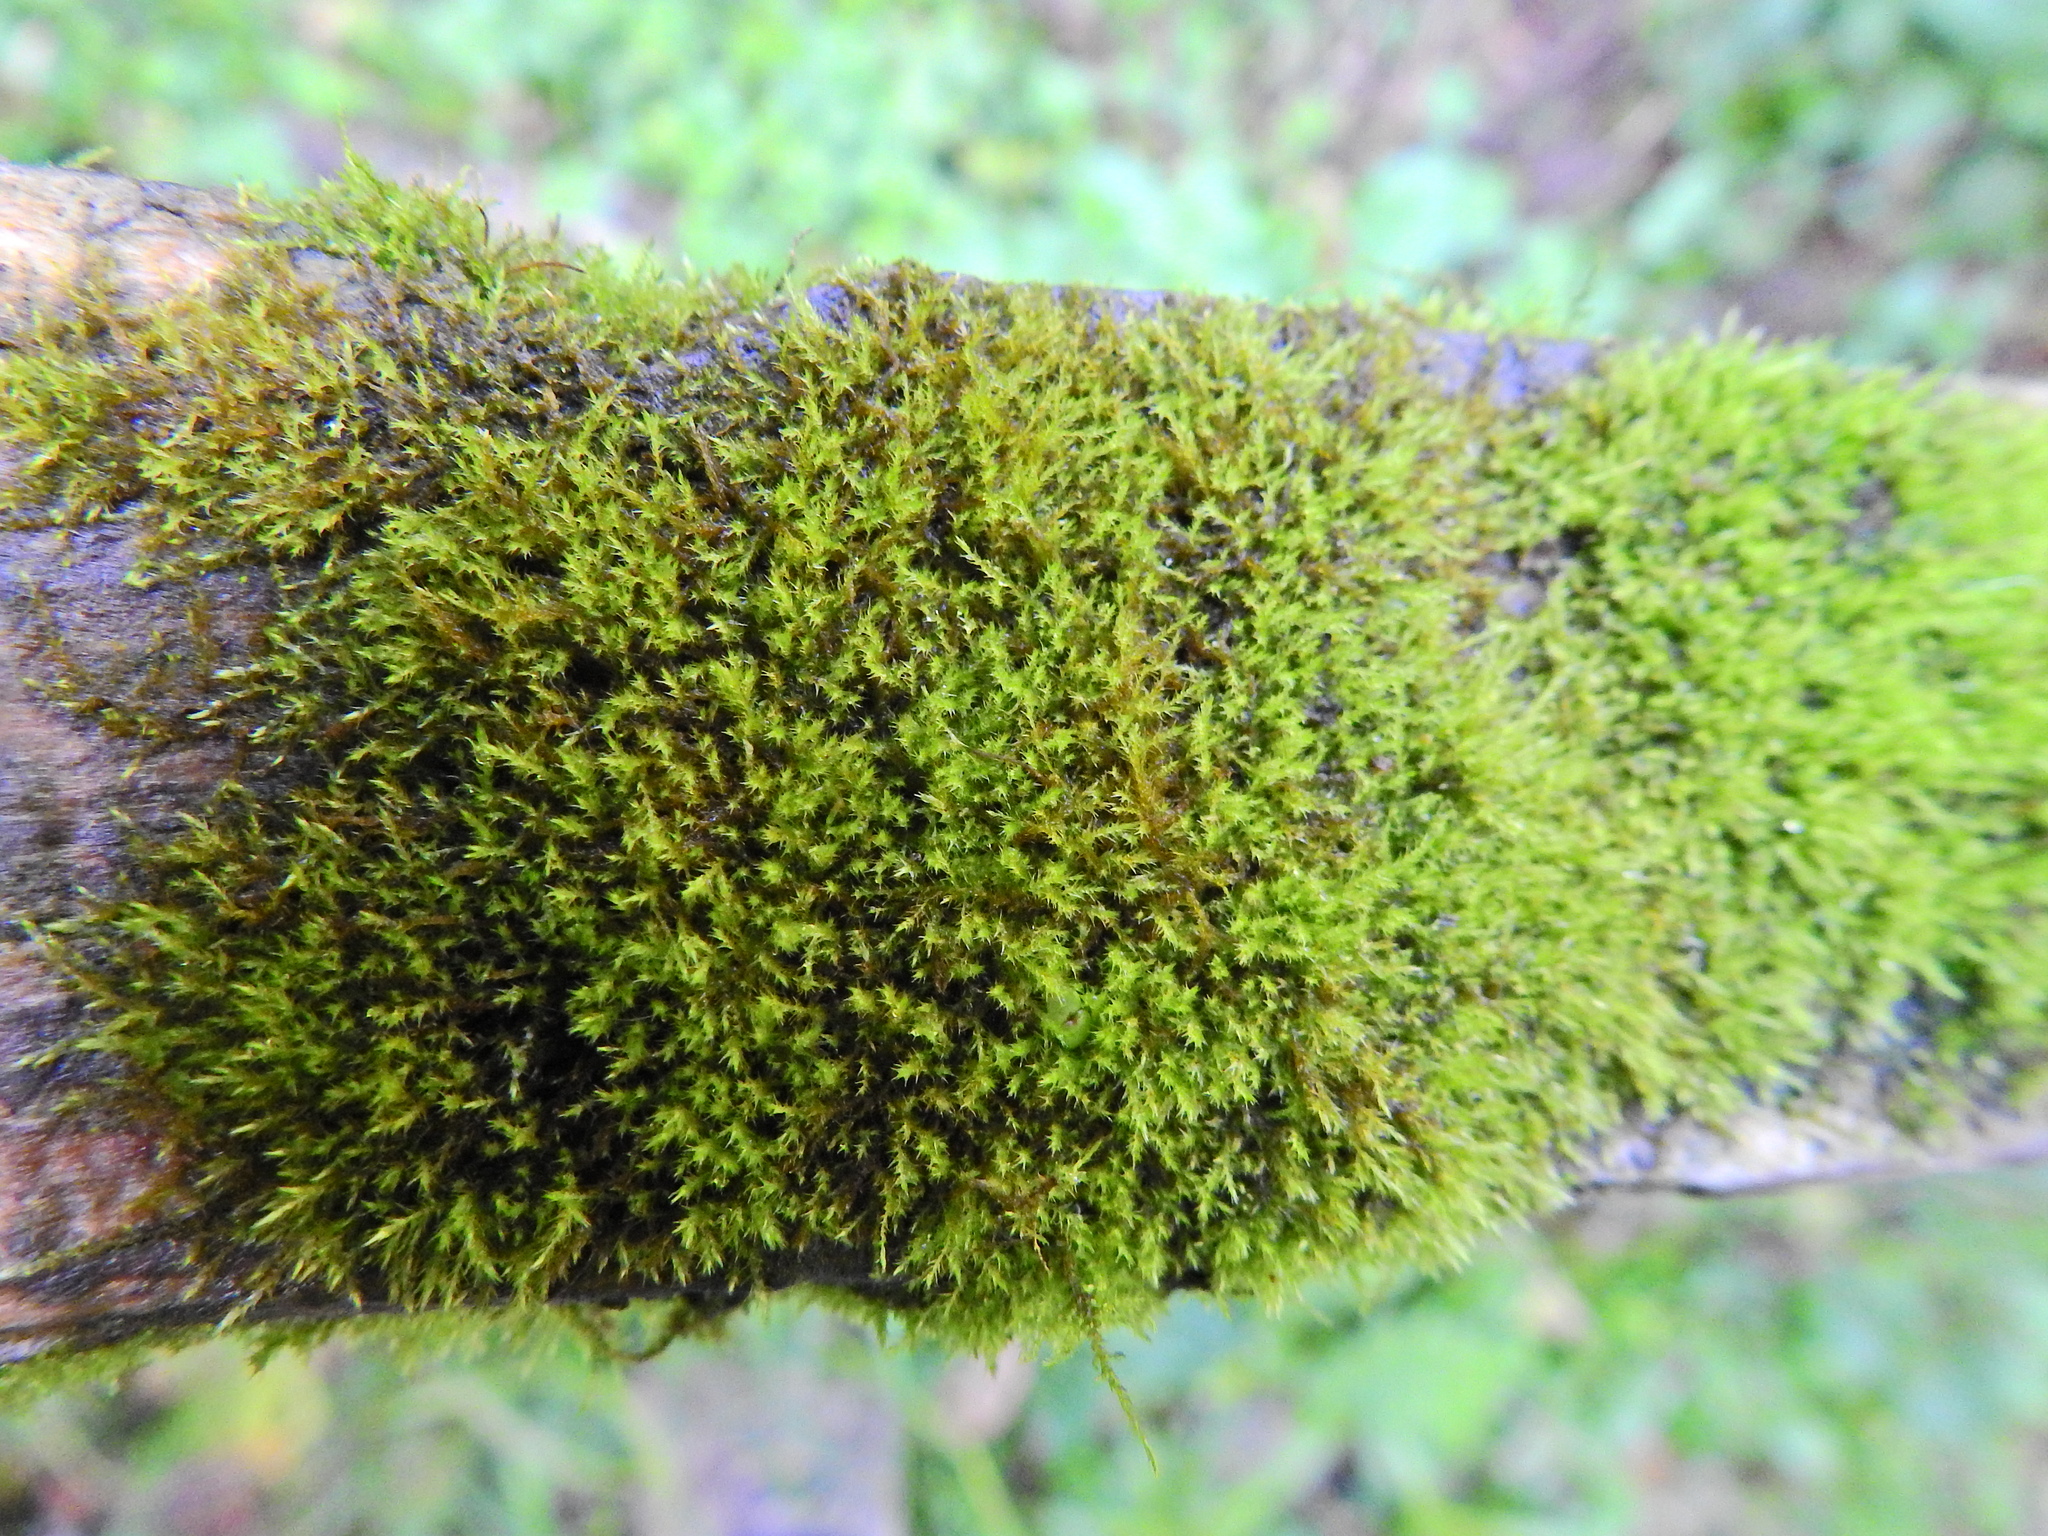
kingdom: Plantae
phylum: Bryophyta
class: Bryopsida
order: Hypnales
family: Amblystegiaceae
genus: Amblystegium
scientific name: Amblystegium serpens
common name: Jurkatzka's feather moss
